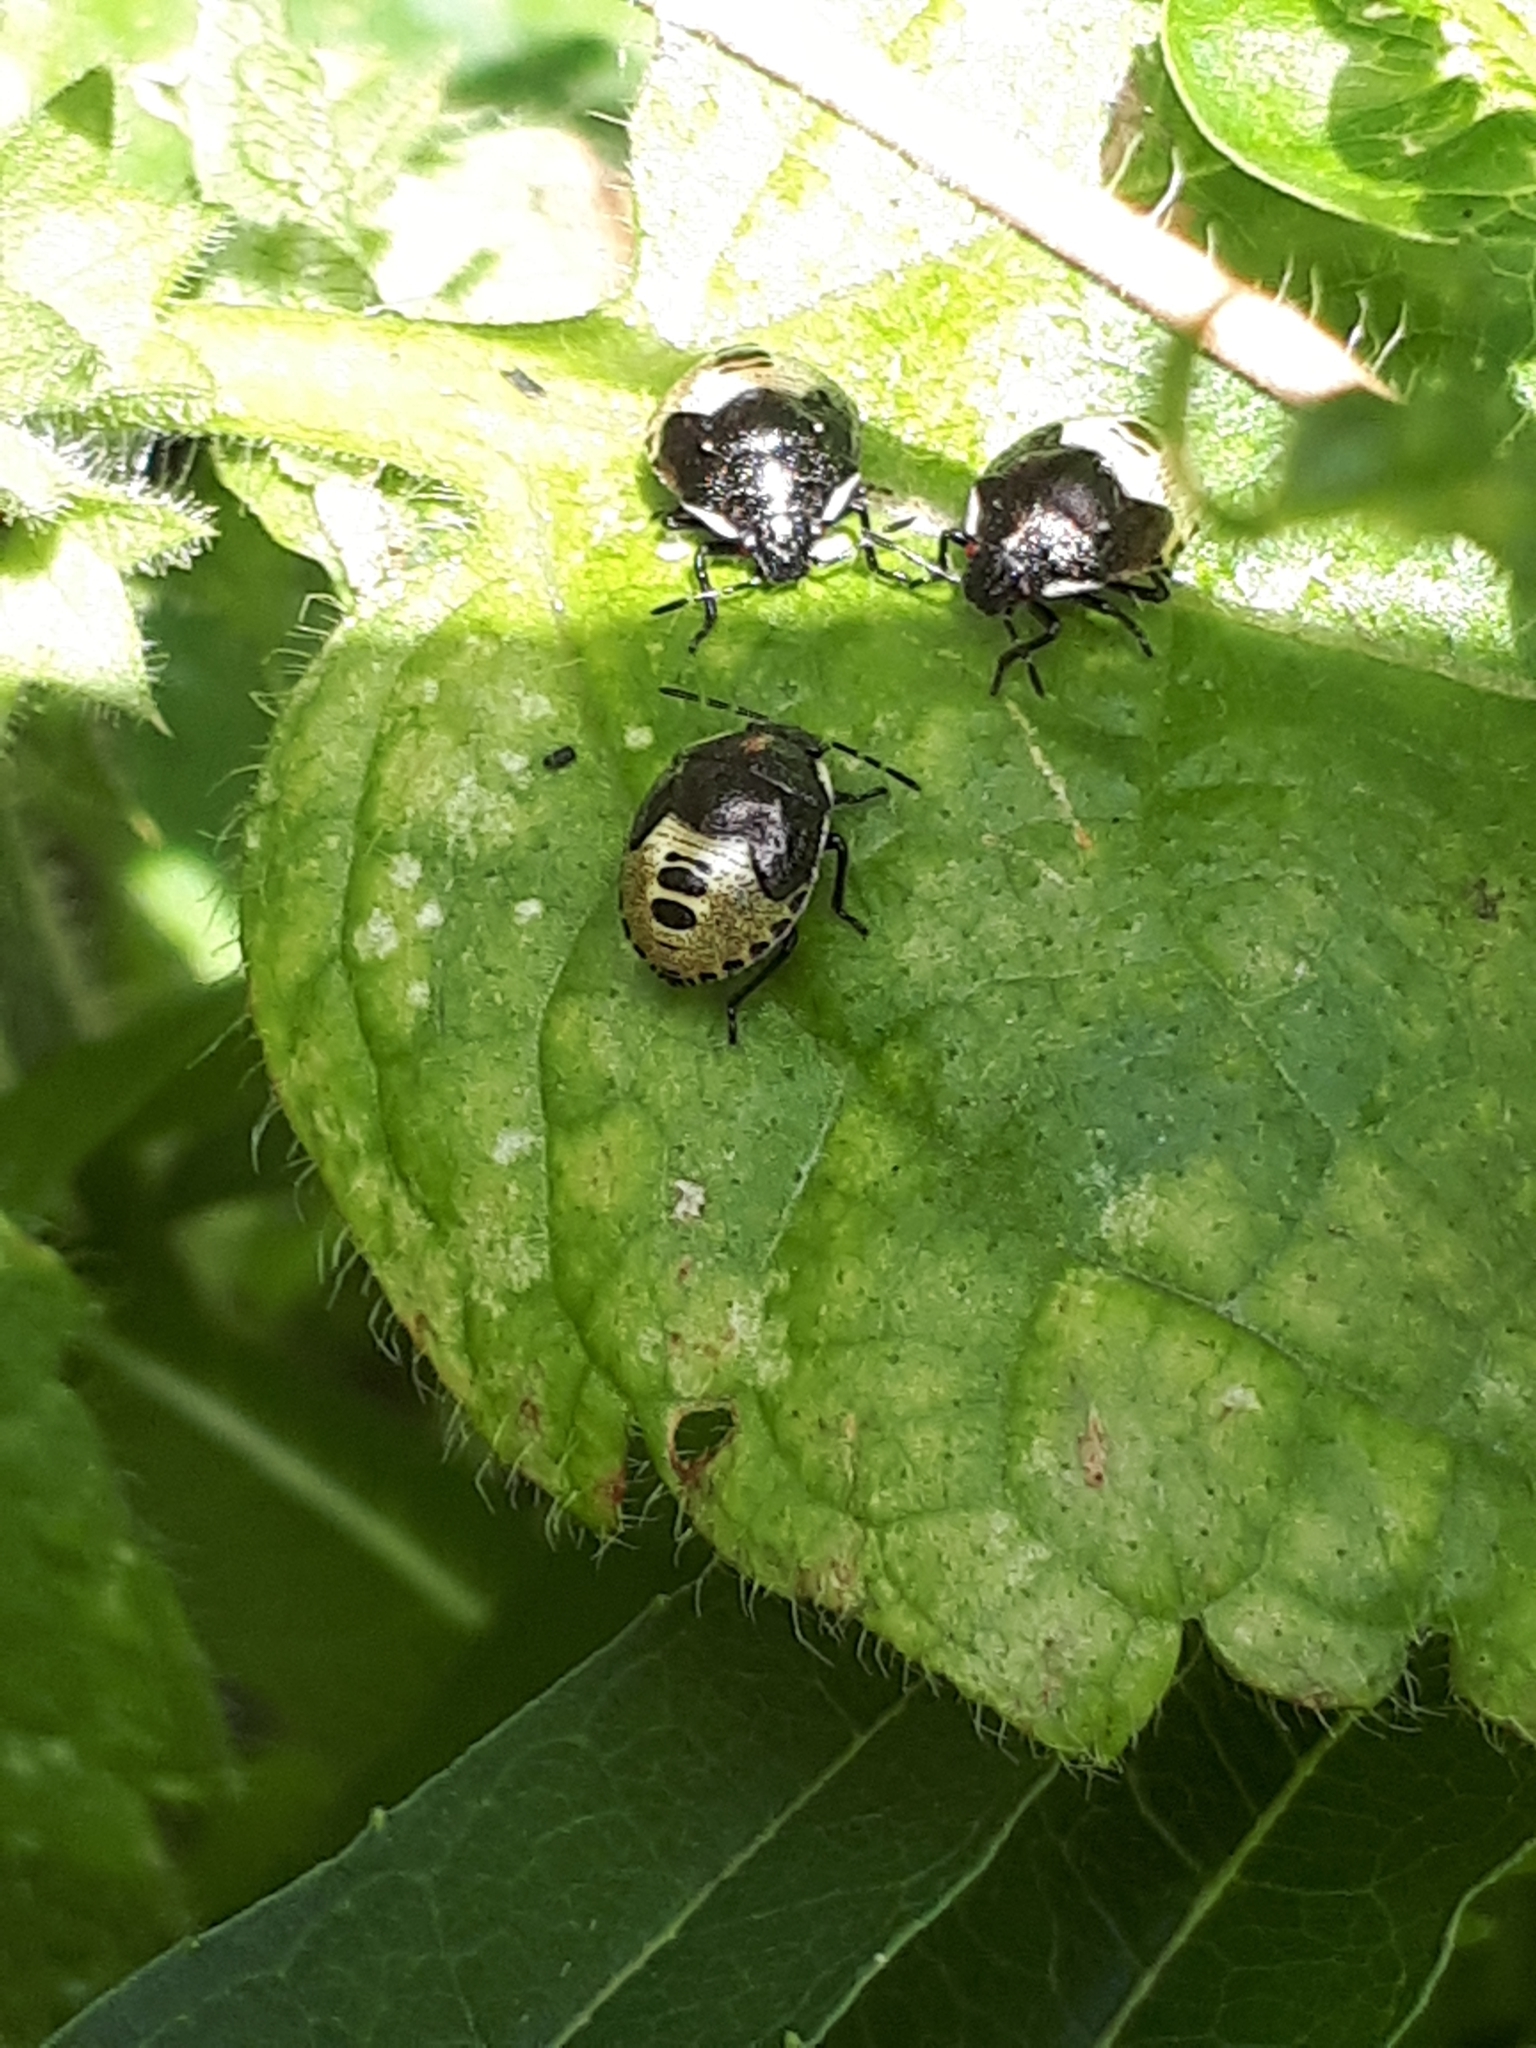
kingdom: Animalia
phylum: Arthropoda
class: Insecta
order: Hemiptera
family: Pentatomidae
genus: Eysarcoris
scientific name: Eysarcoris venustissimus
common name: Woundwort shieldbug
